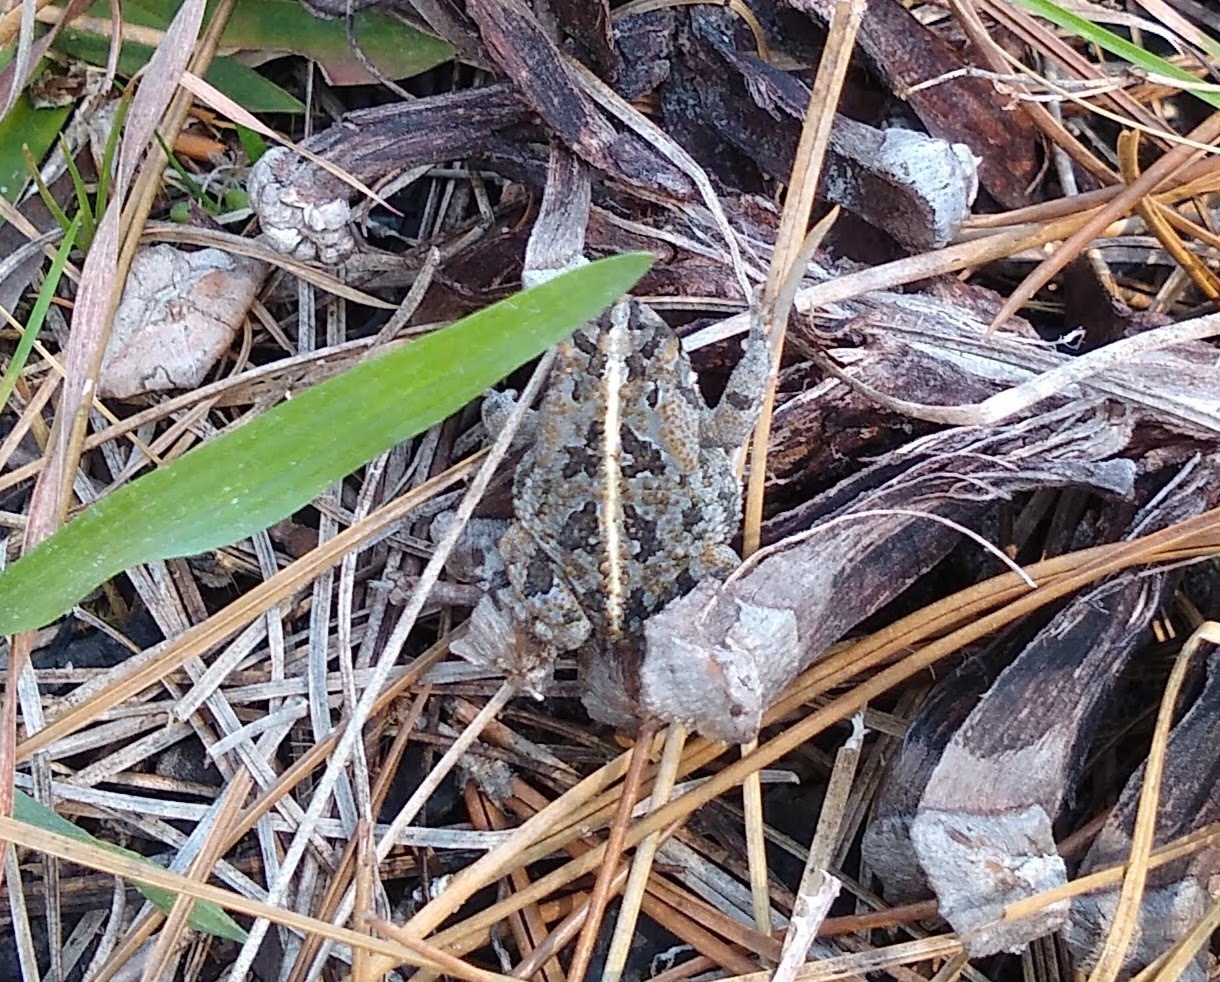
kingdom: Animalia
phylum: Chordata
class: Amphibia
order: Anura
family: Bufonidae
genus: Anaxyrus
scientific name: Anaxyrus quercicus
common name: Oak toad
